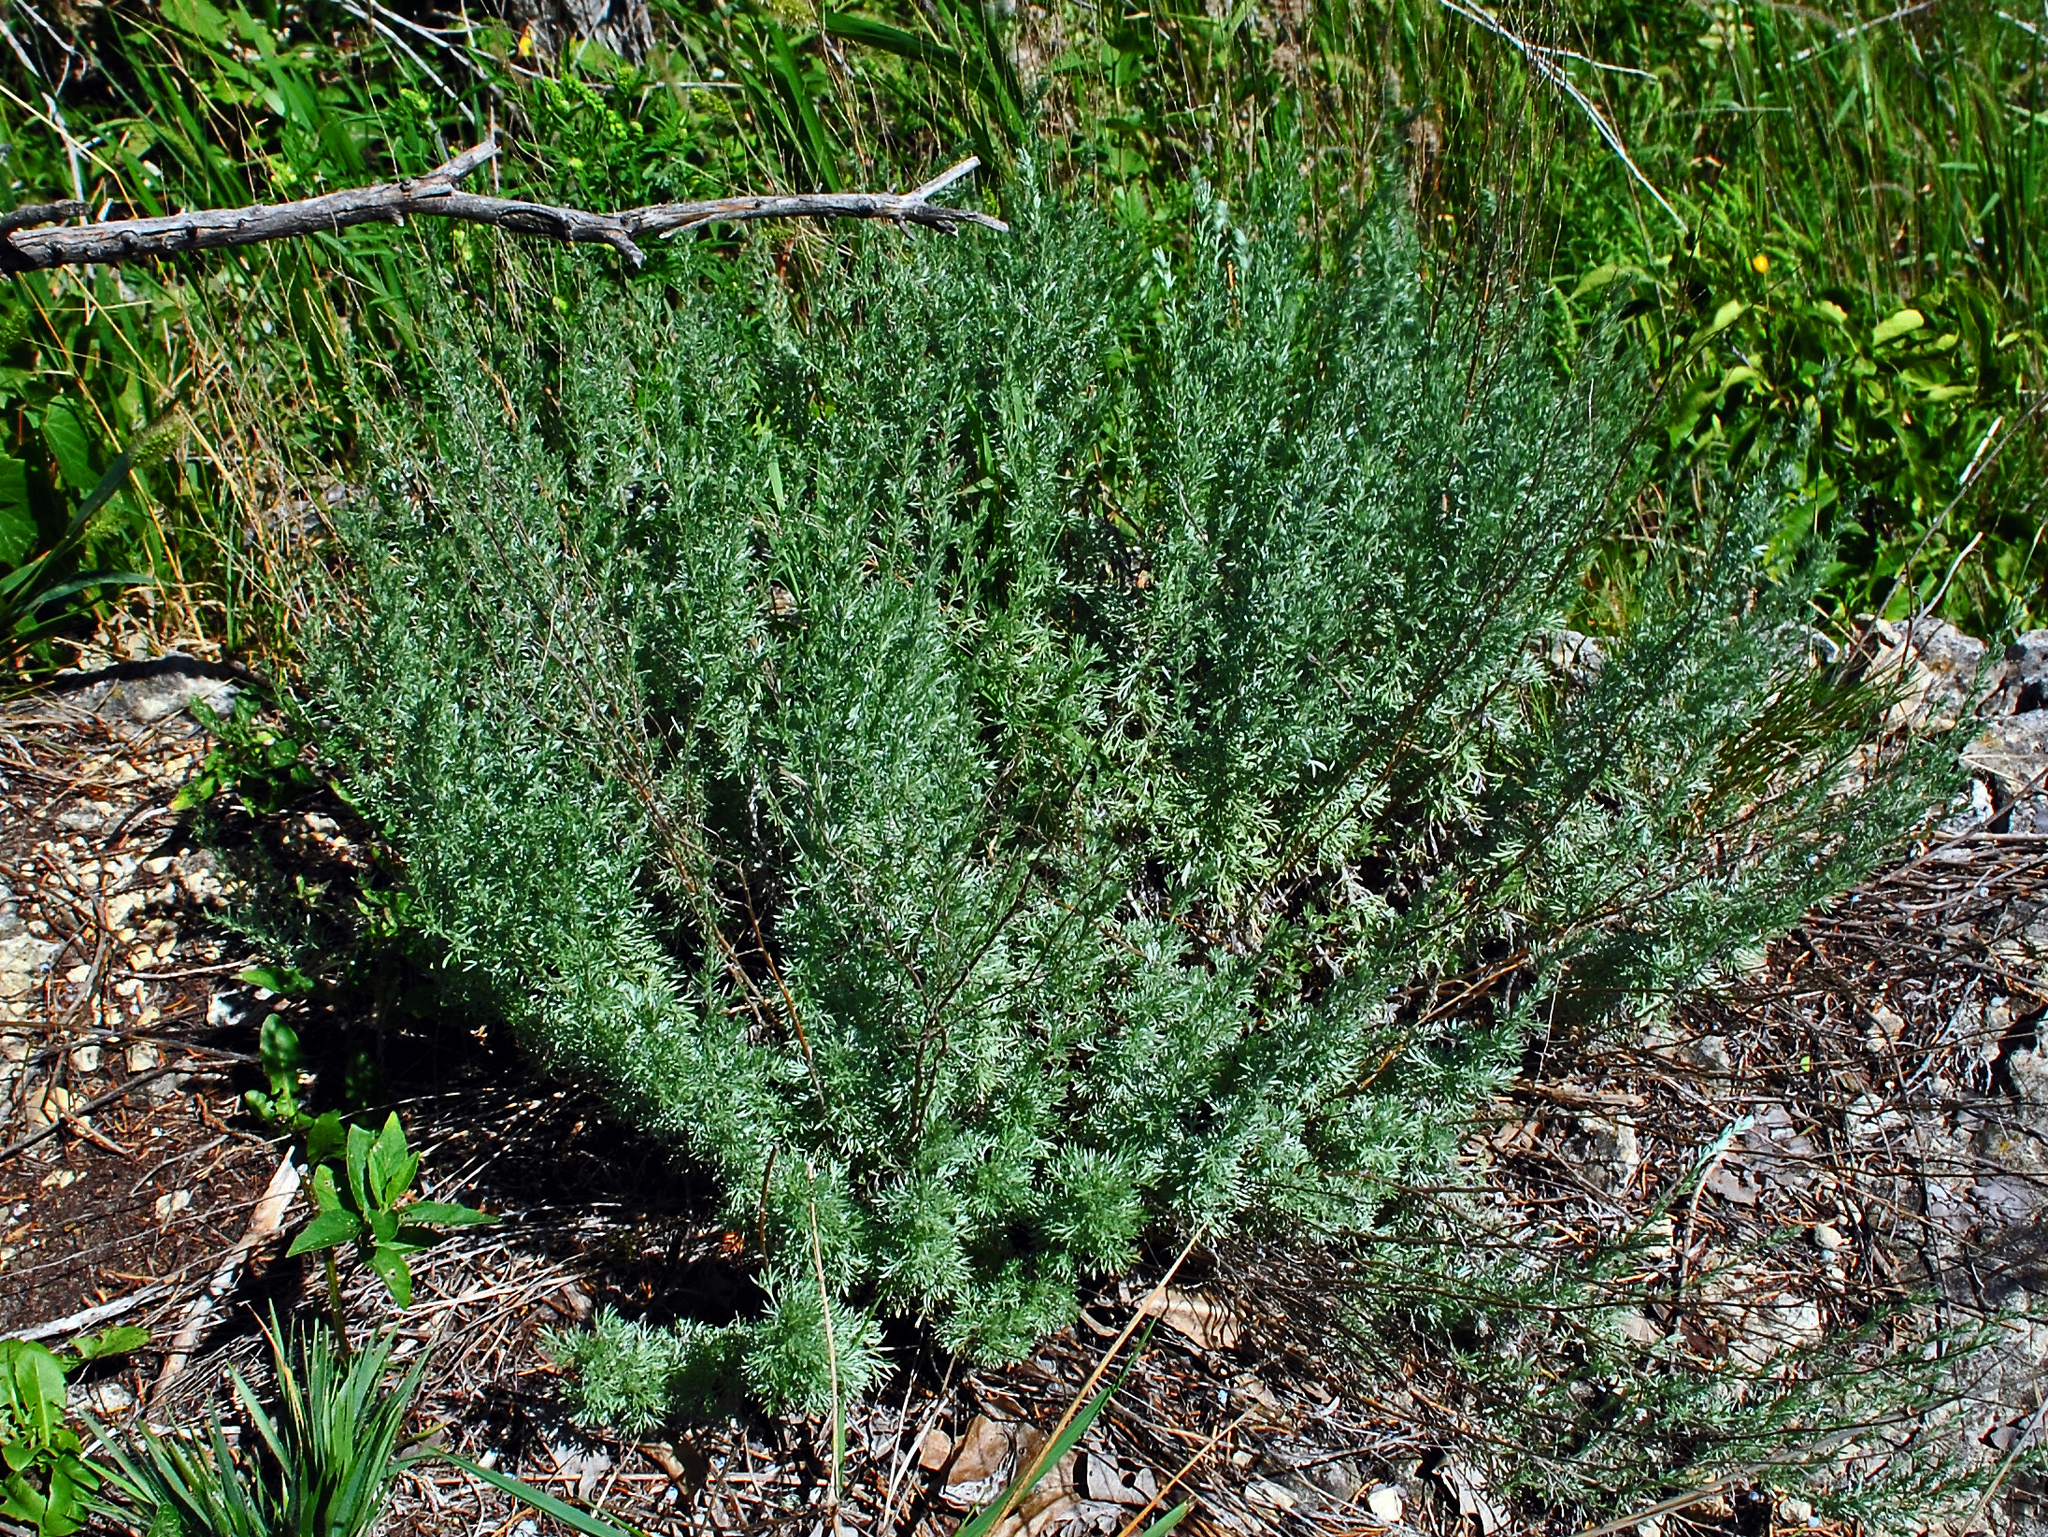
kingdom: Plantae
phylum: Tracheophyta
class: Magnoliopsida
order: Asterales
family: Asteraceae
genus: Artemisia
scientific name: Artemisia frigida
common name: Prairie sagewort
